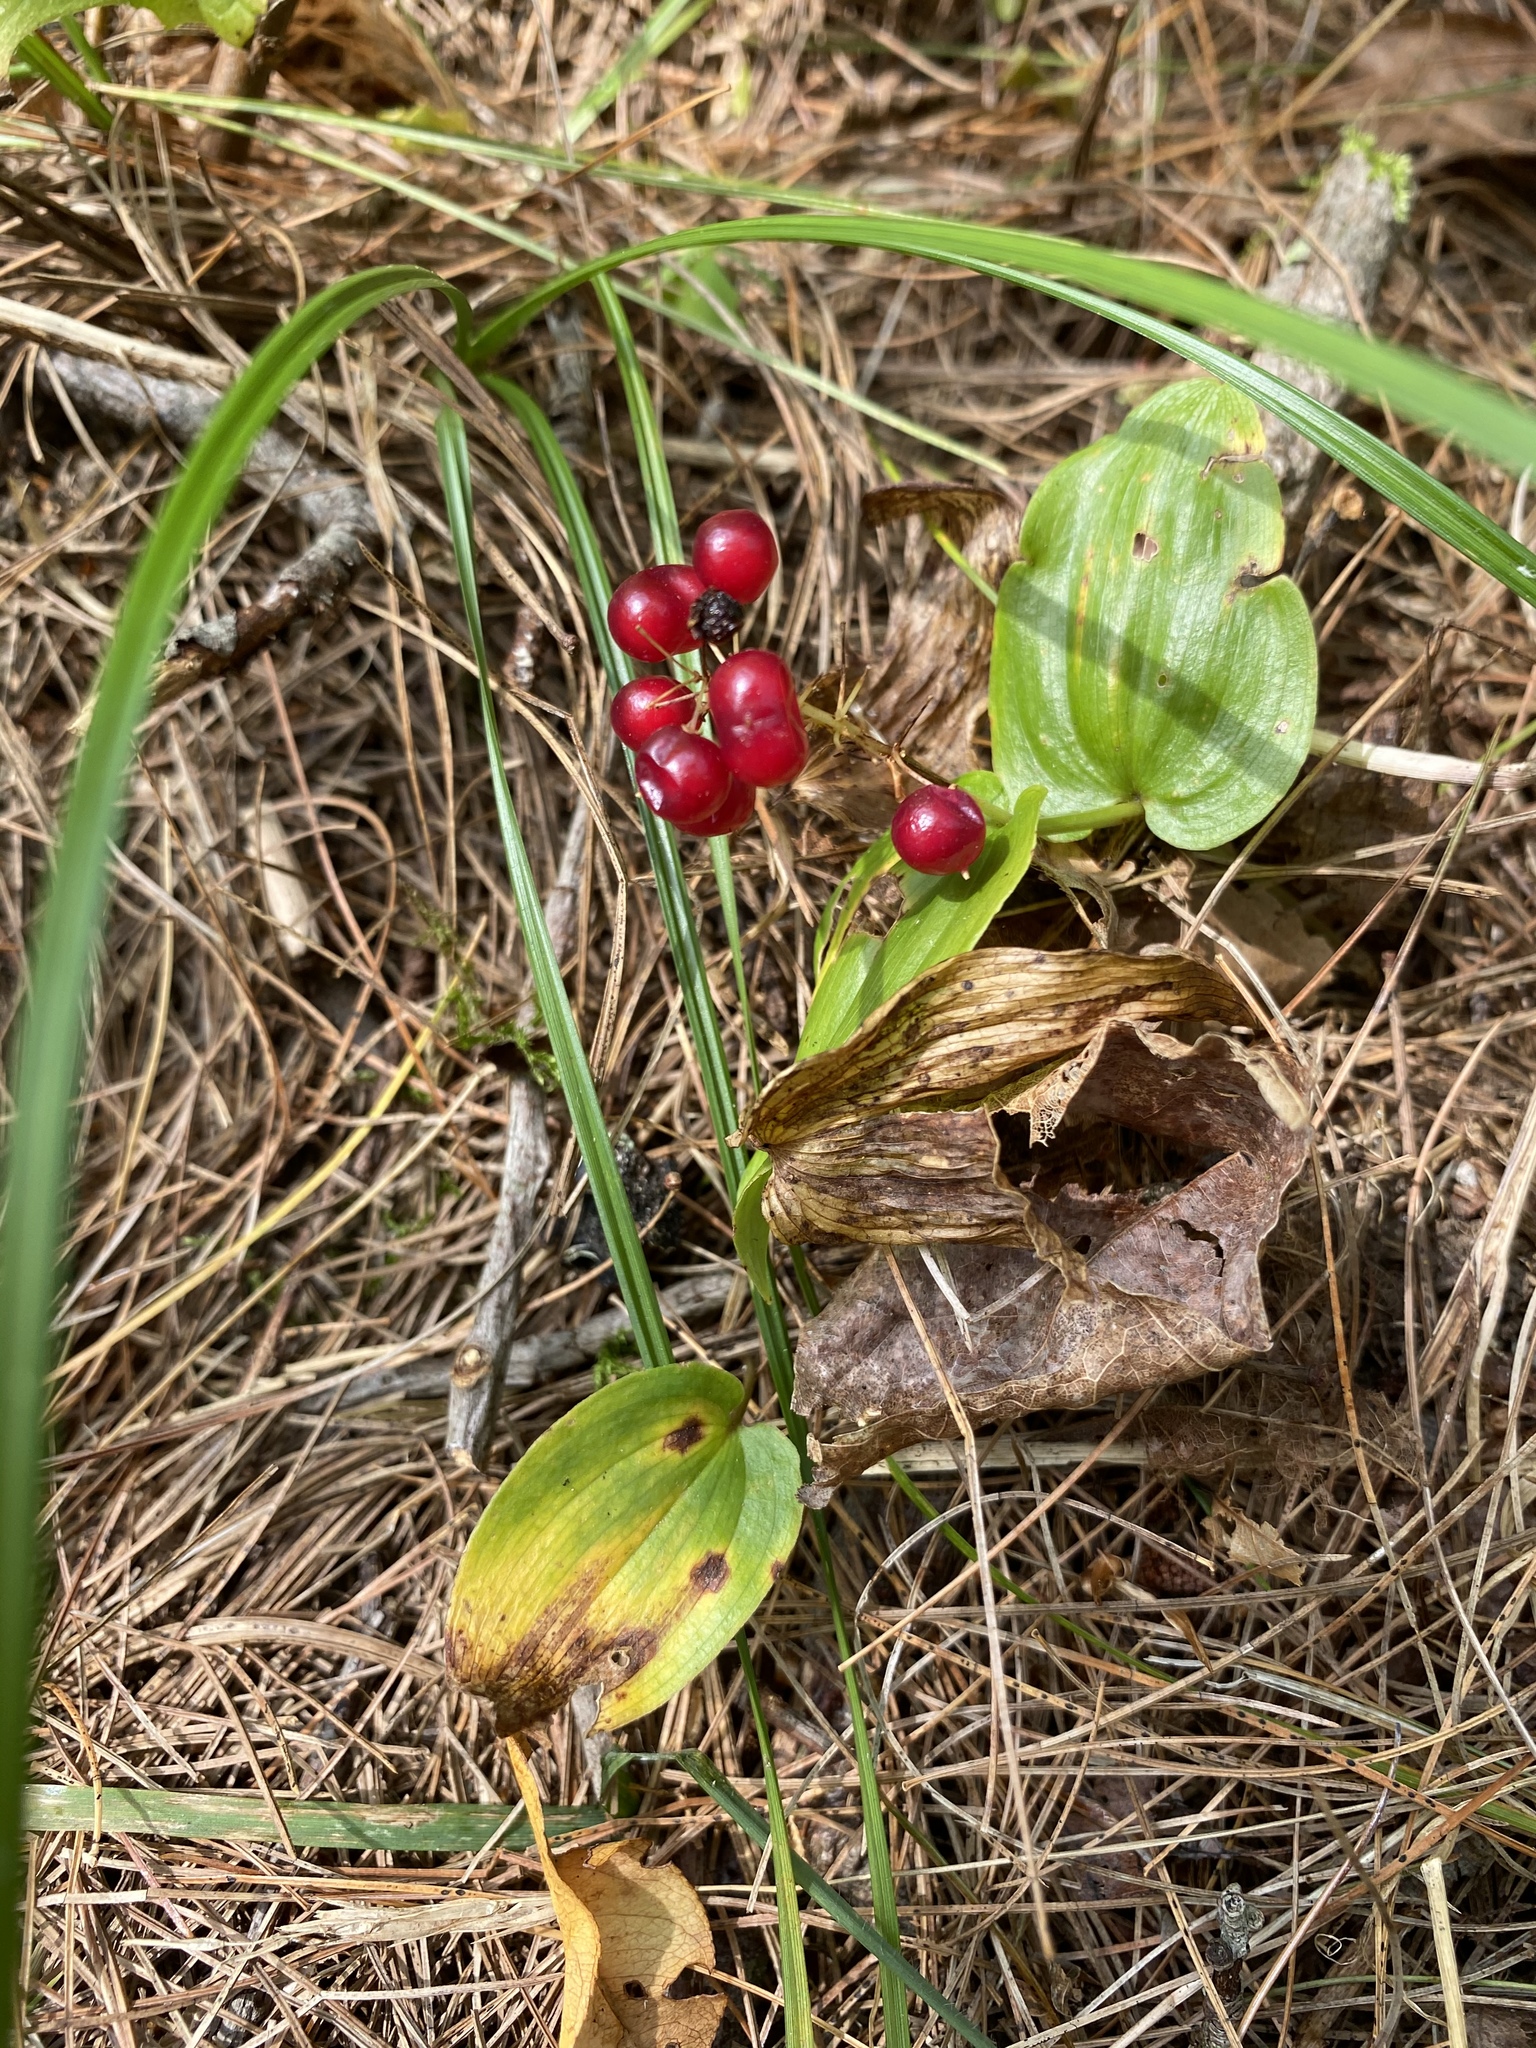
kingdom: Plantae
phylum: Tracheophyta
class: Liliopsida
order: Asparagales
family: Asparagaceae
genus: Maianthemum
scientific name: Maianthemum canadense
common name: False lily-of-the-valley
